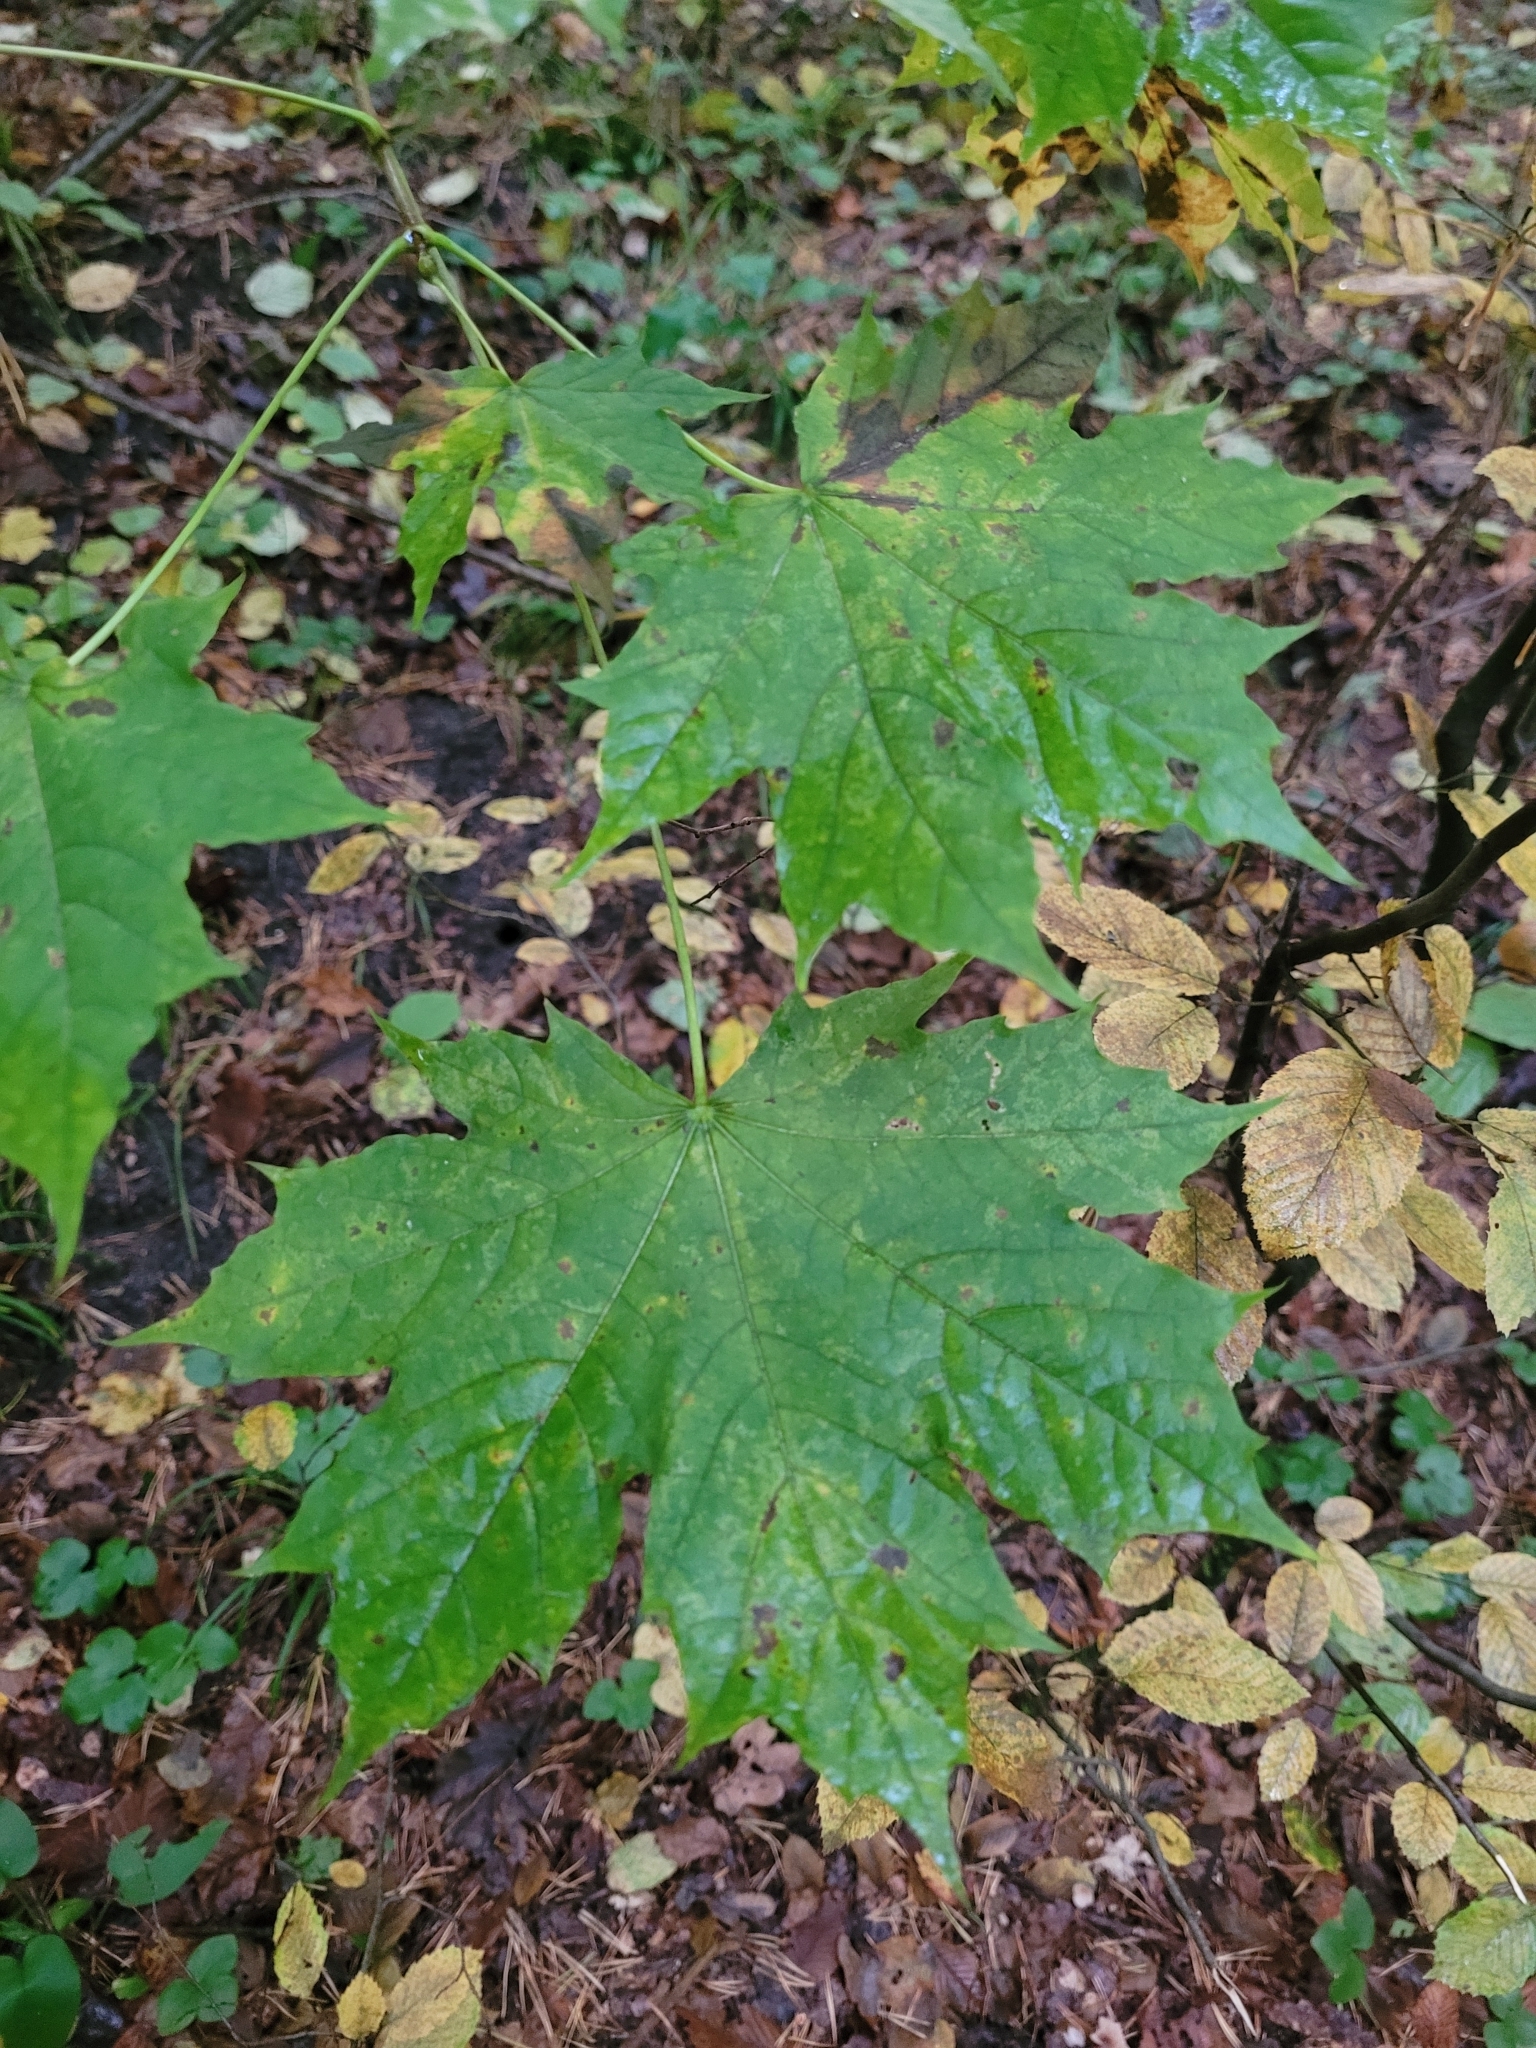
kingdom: Plantae
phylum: Tracheophyta
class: Magnoliopsida
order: Sapindales
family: Sapindaceae
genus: Acer
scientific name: Acer platanoides
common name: Norway maple
